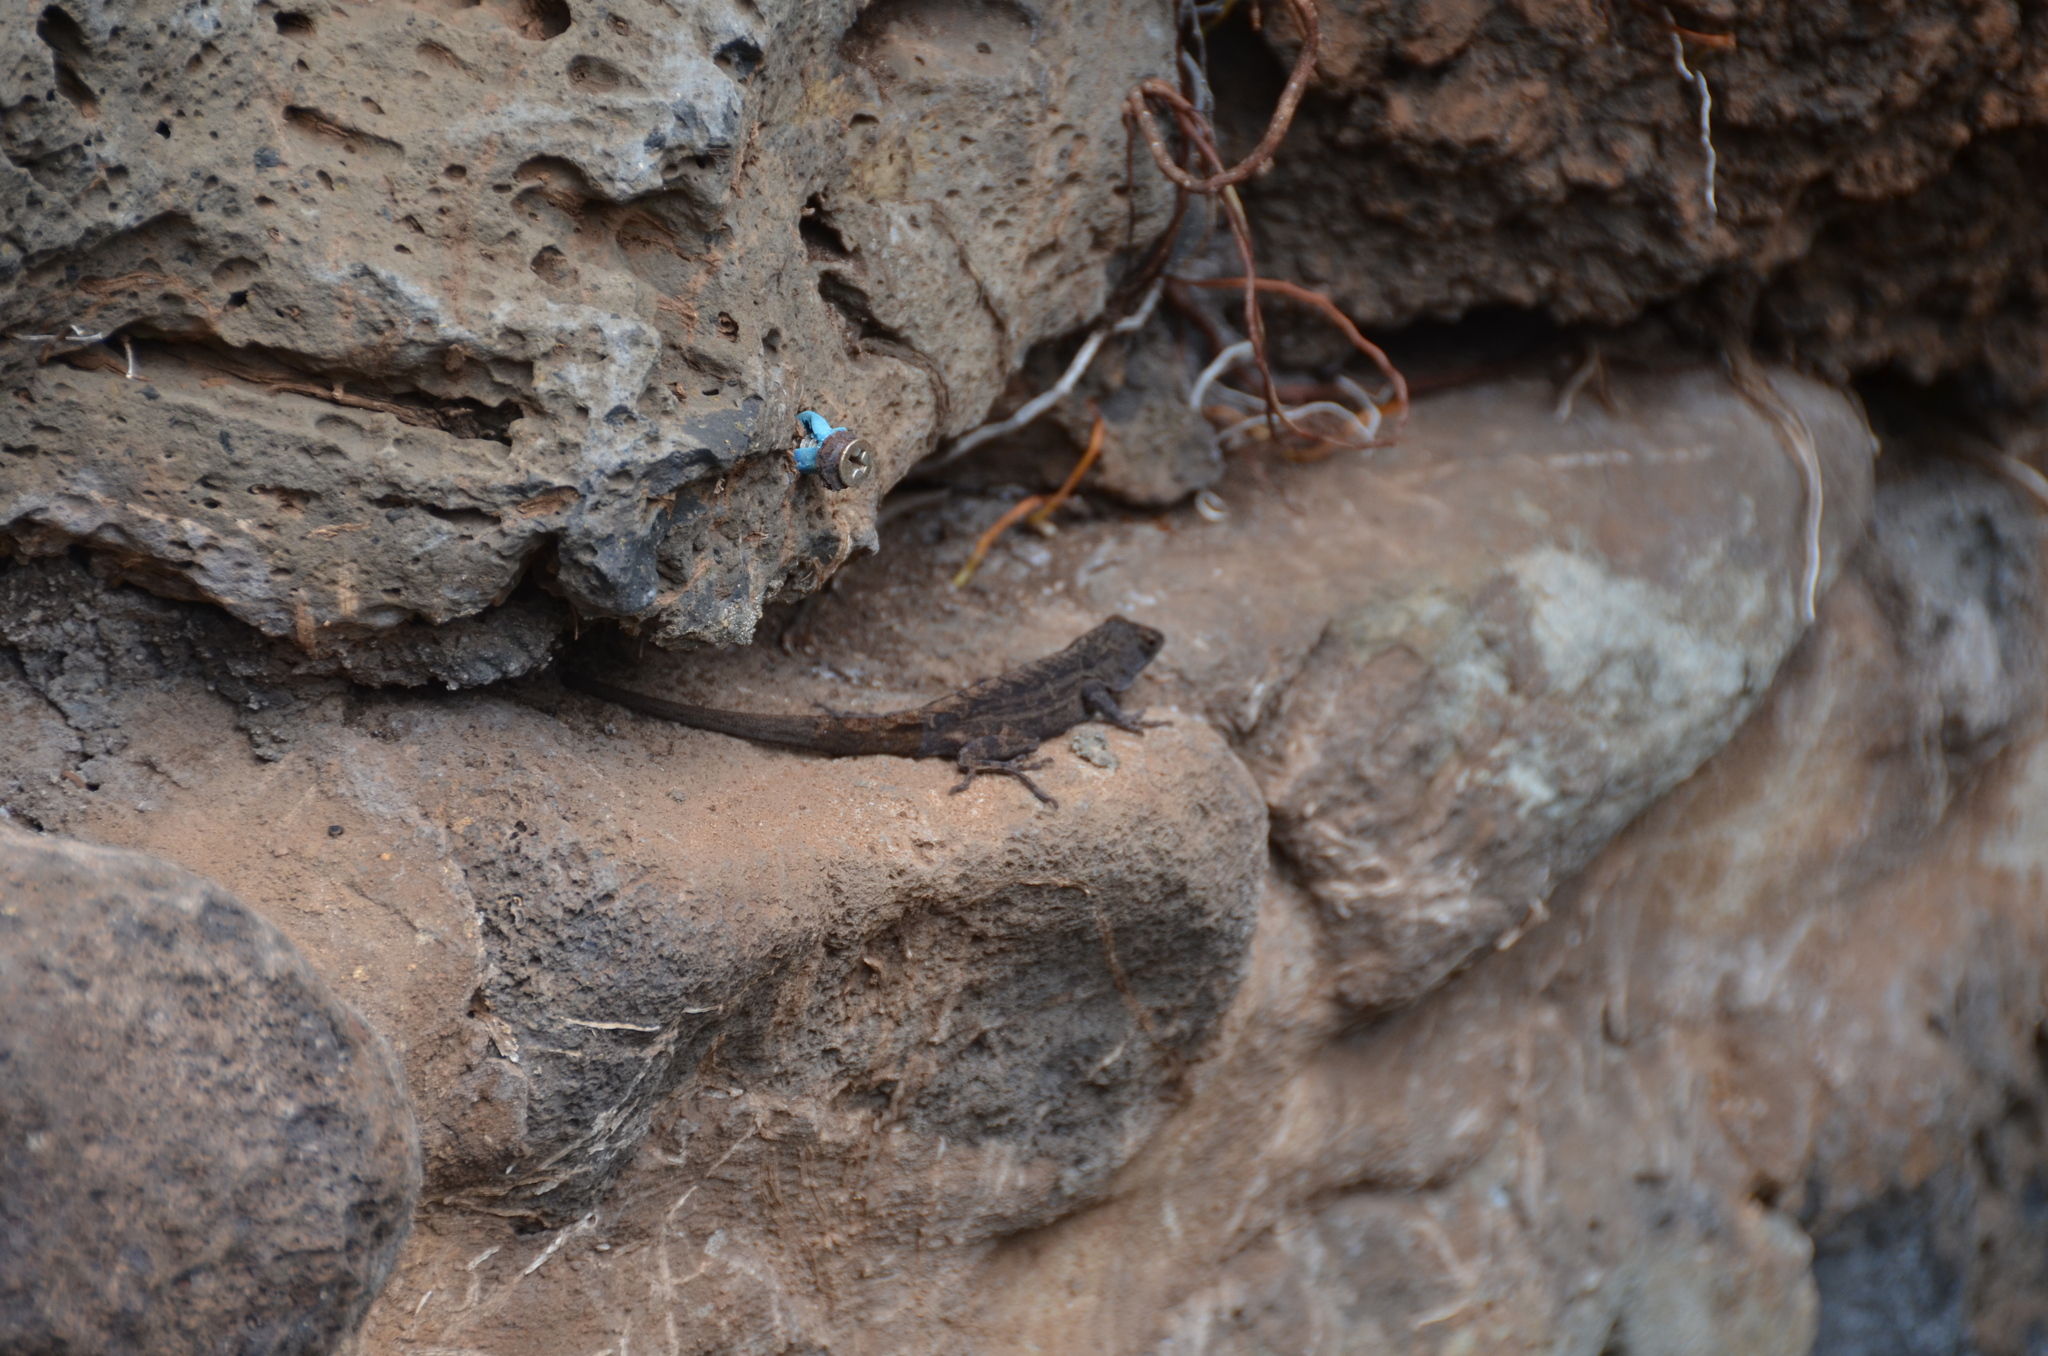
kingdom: Animalia
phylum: Chordata
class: Squamata
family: Dactyloidae
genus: Anolis
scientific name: Anolis sagrei
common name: Brown anole
